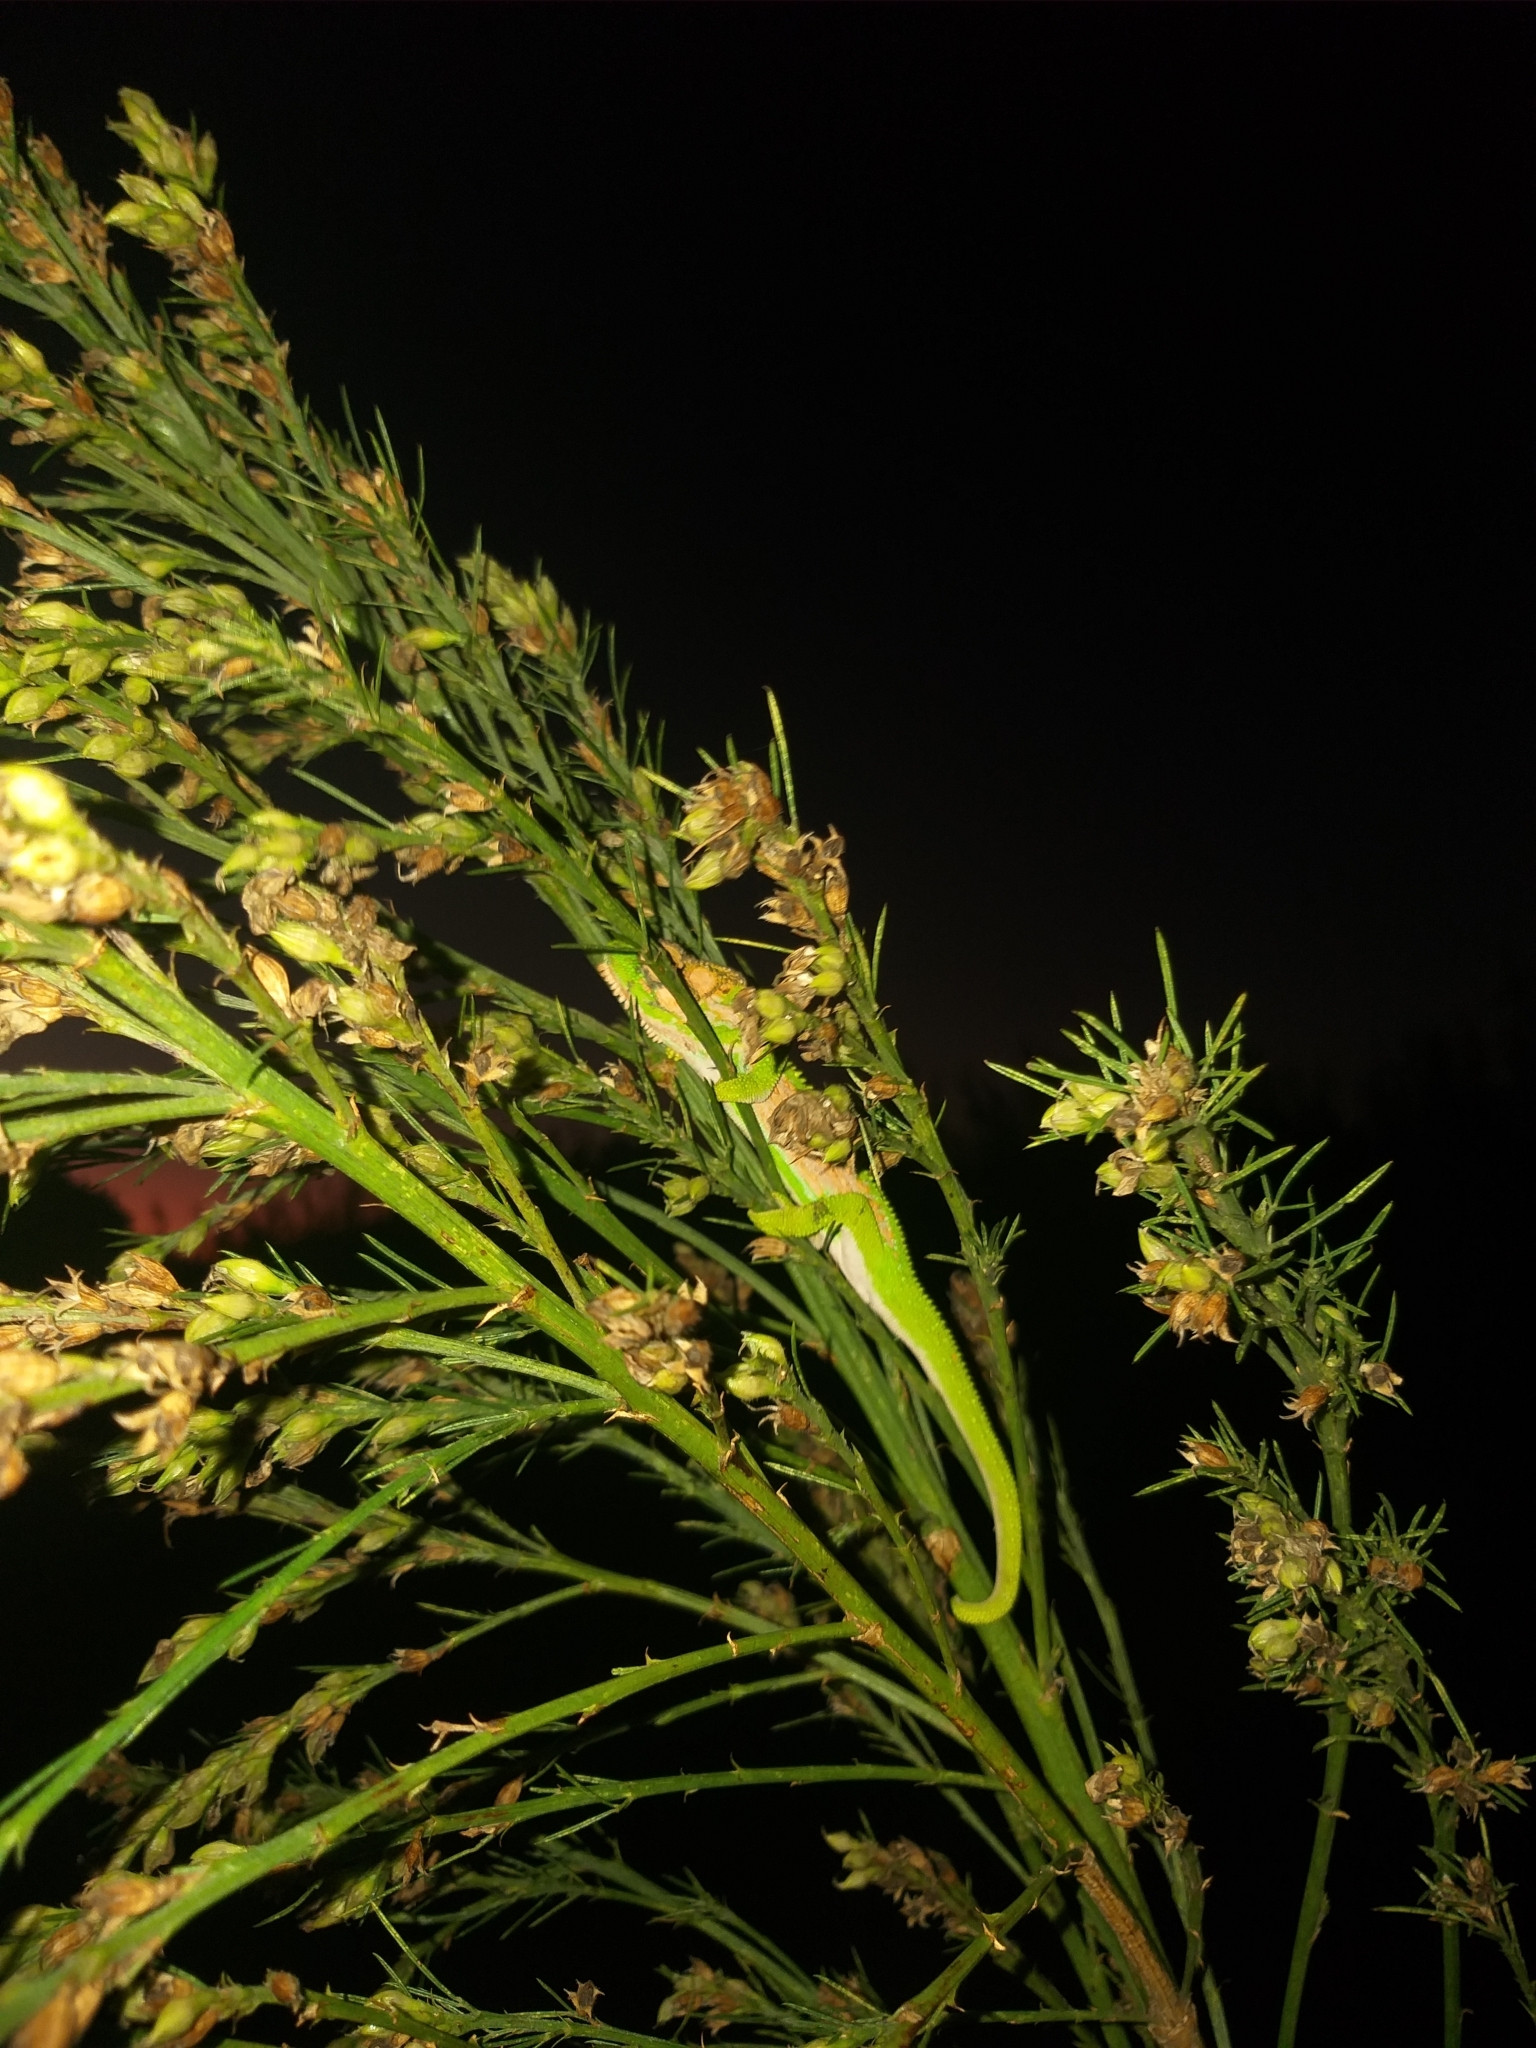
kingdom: Animalia
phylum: Chordata
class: Squamata
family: Chamaeleonidae
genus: Bradypodion
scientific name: Bradypodion pumilum
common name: Cape dwarf chameleon
